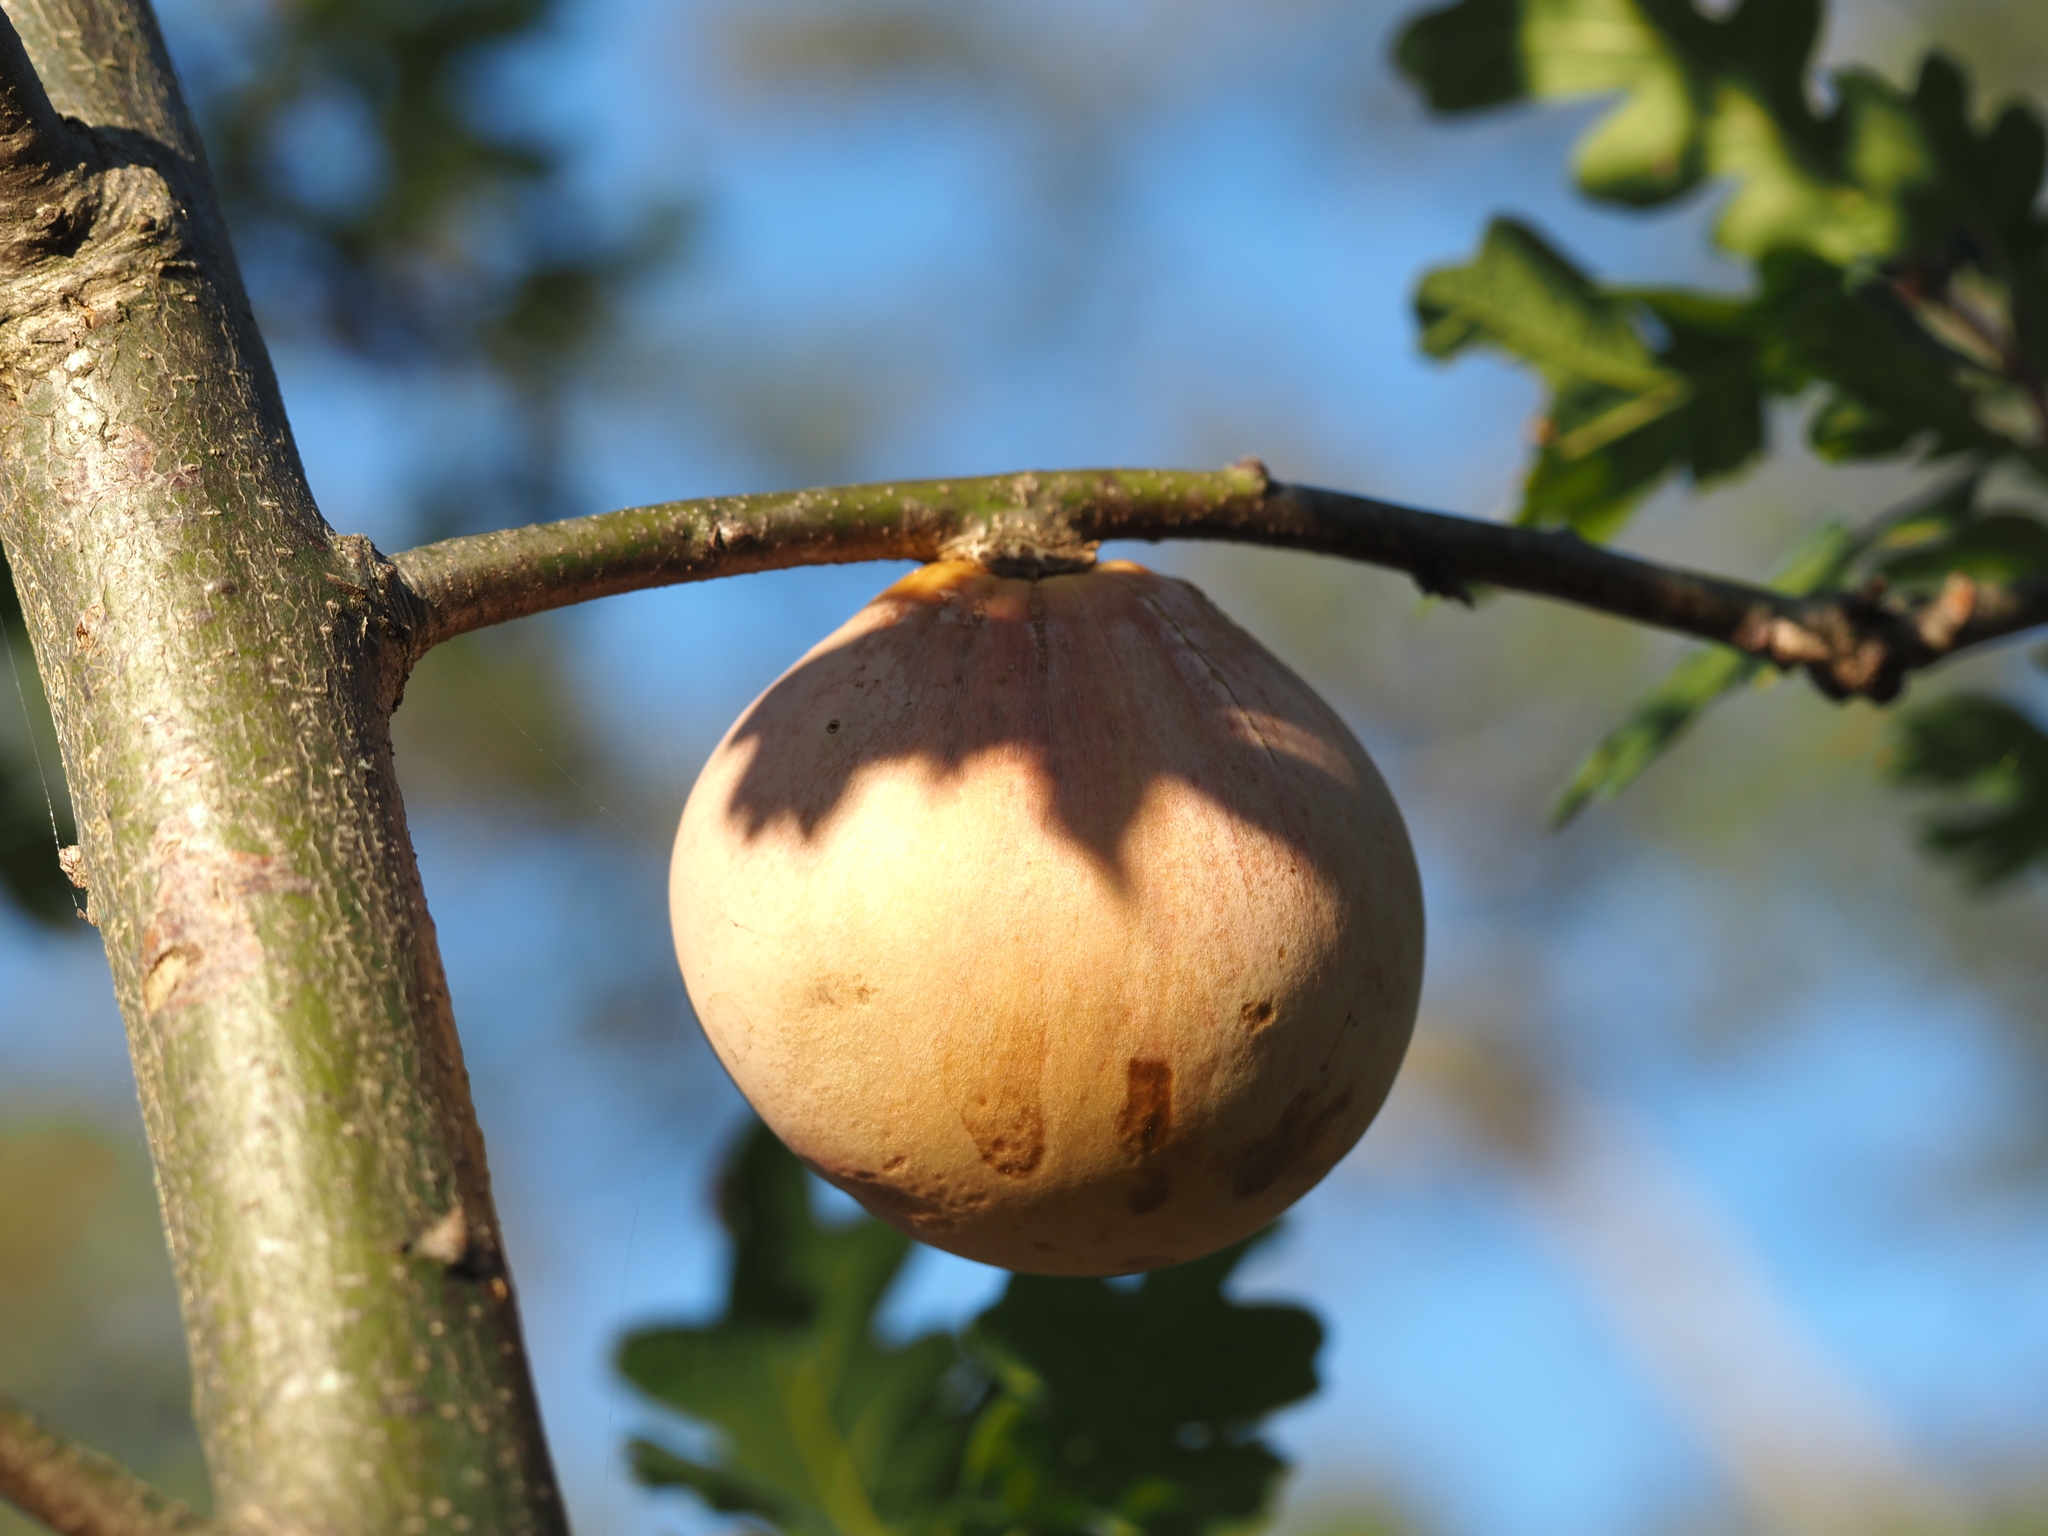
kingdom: Animalia
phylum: Arthropoda
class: Insecta
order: Hymenoptera
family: Cynipidae
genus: Andricus
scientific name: Andricus quercuscalifornicus
